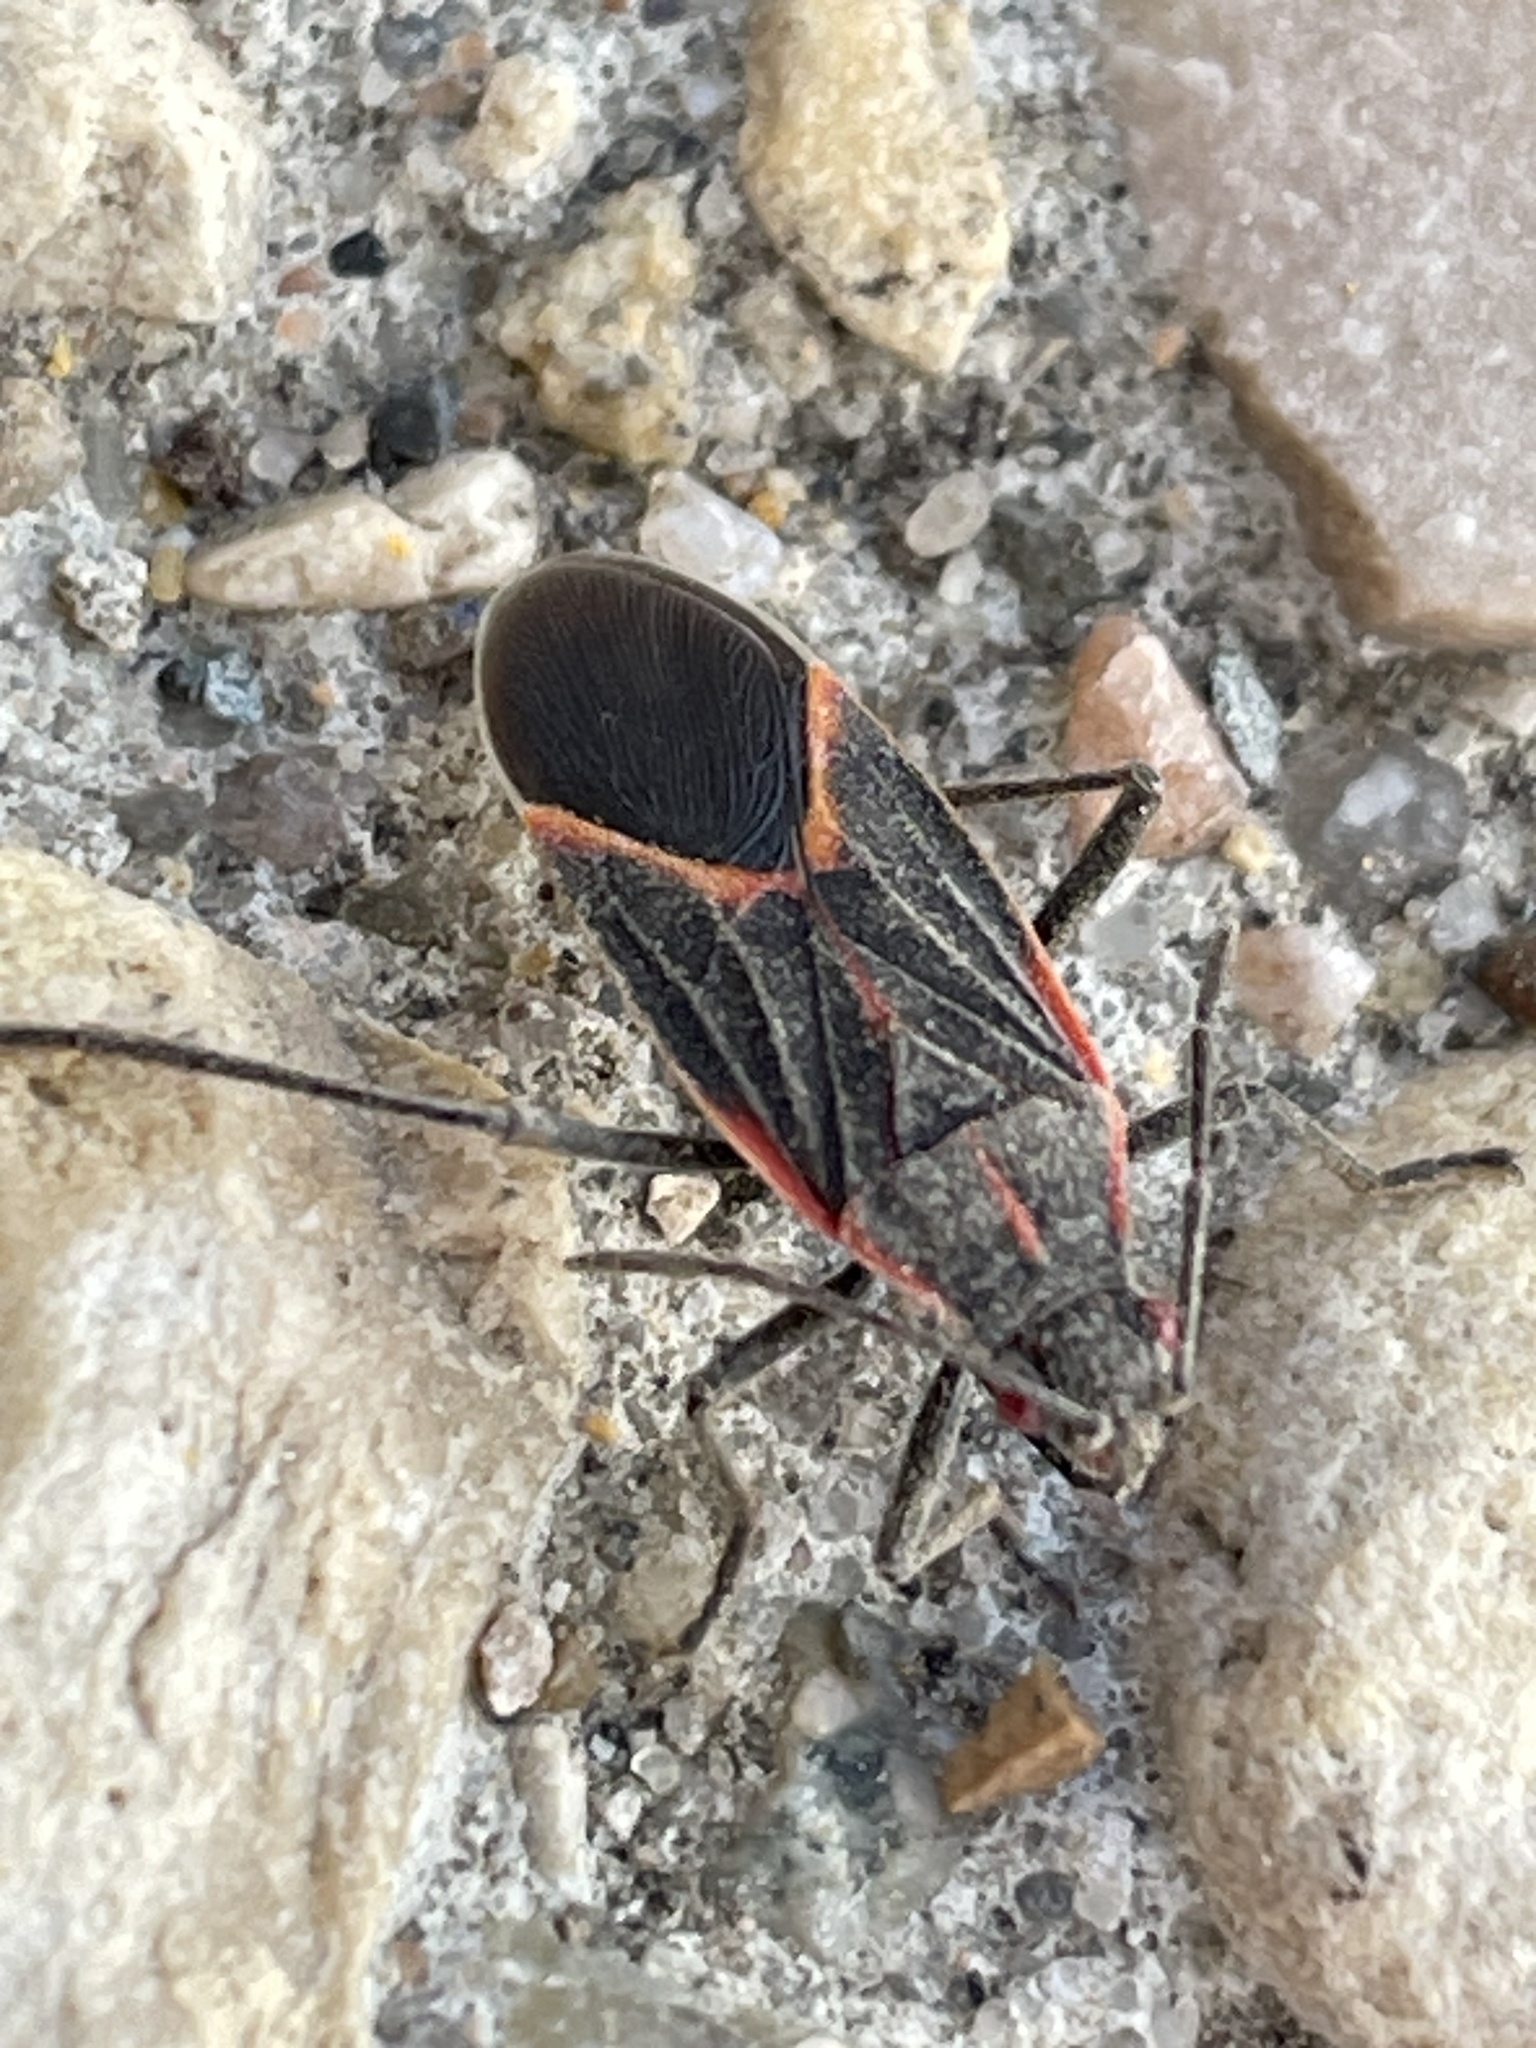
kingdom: Animalia
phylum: Arthropoda
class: Insecta
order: Hemiptera
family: Rhopalidae
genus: Boisea
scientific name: Boisea trivittata
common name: Boxelder bug
